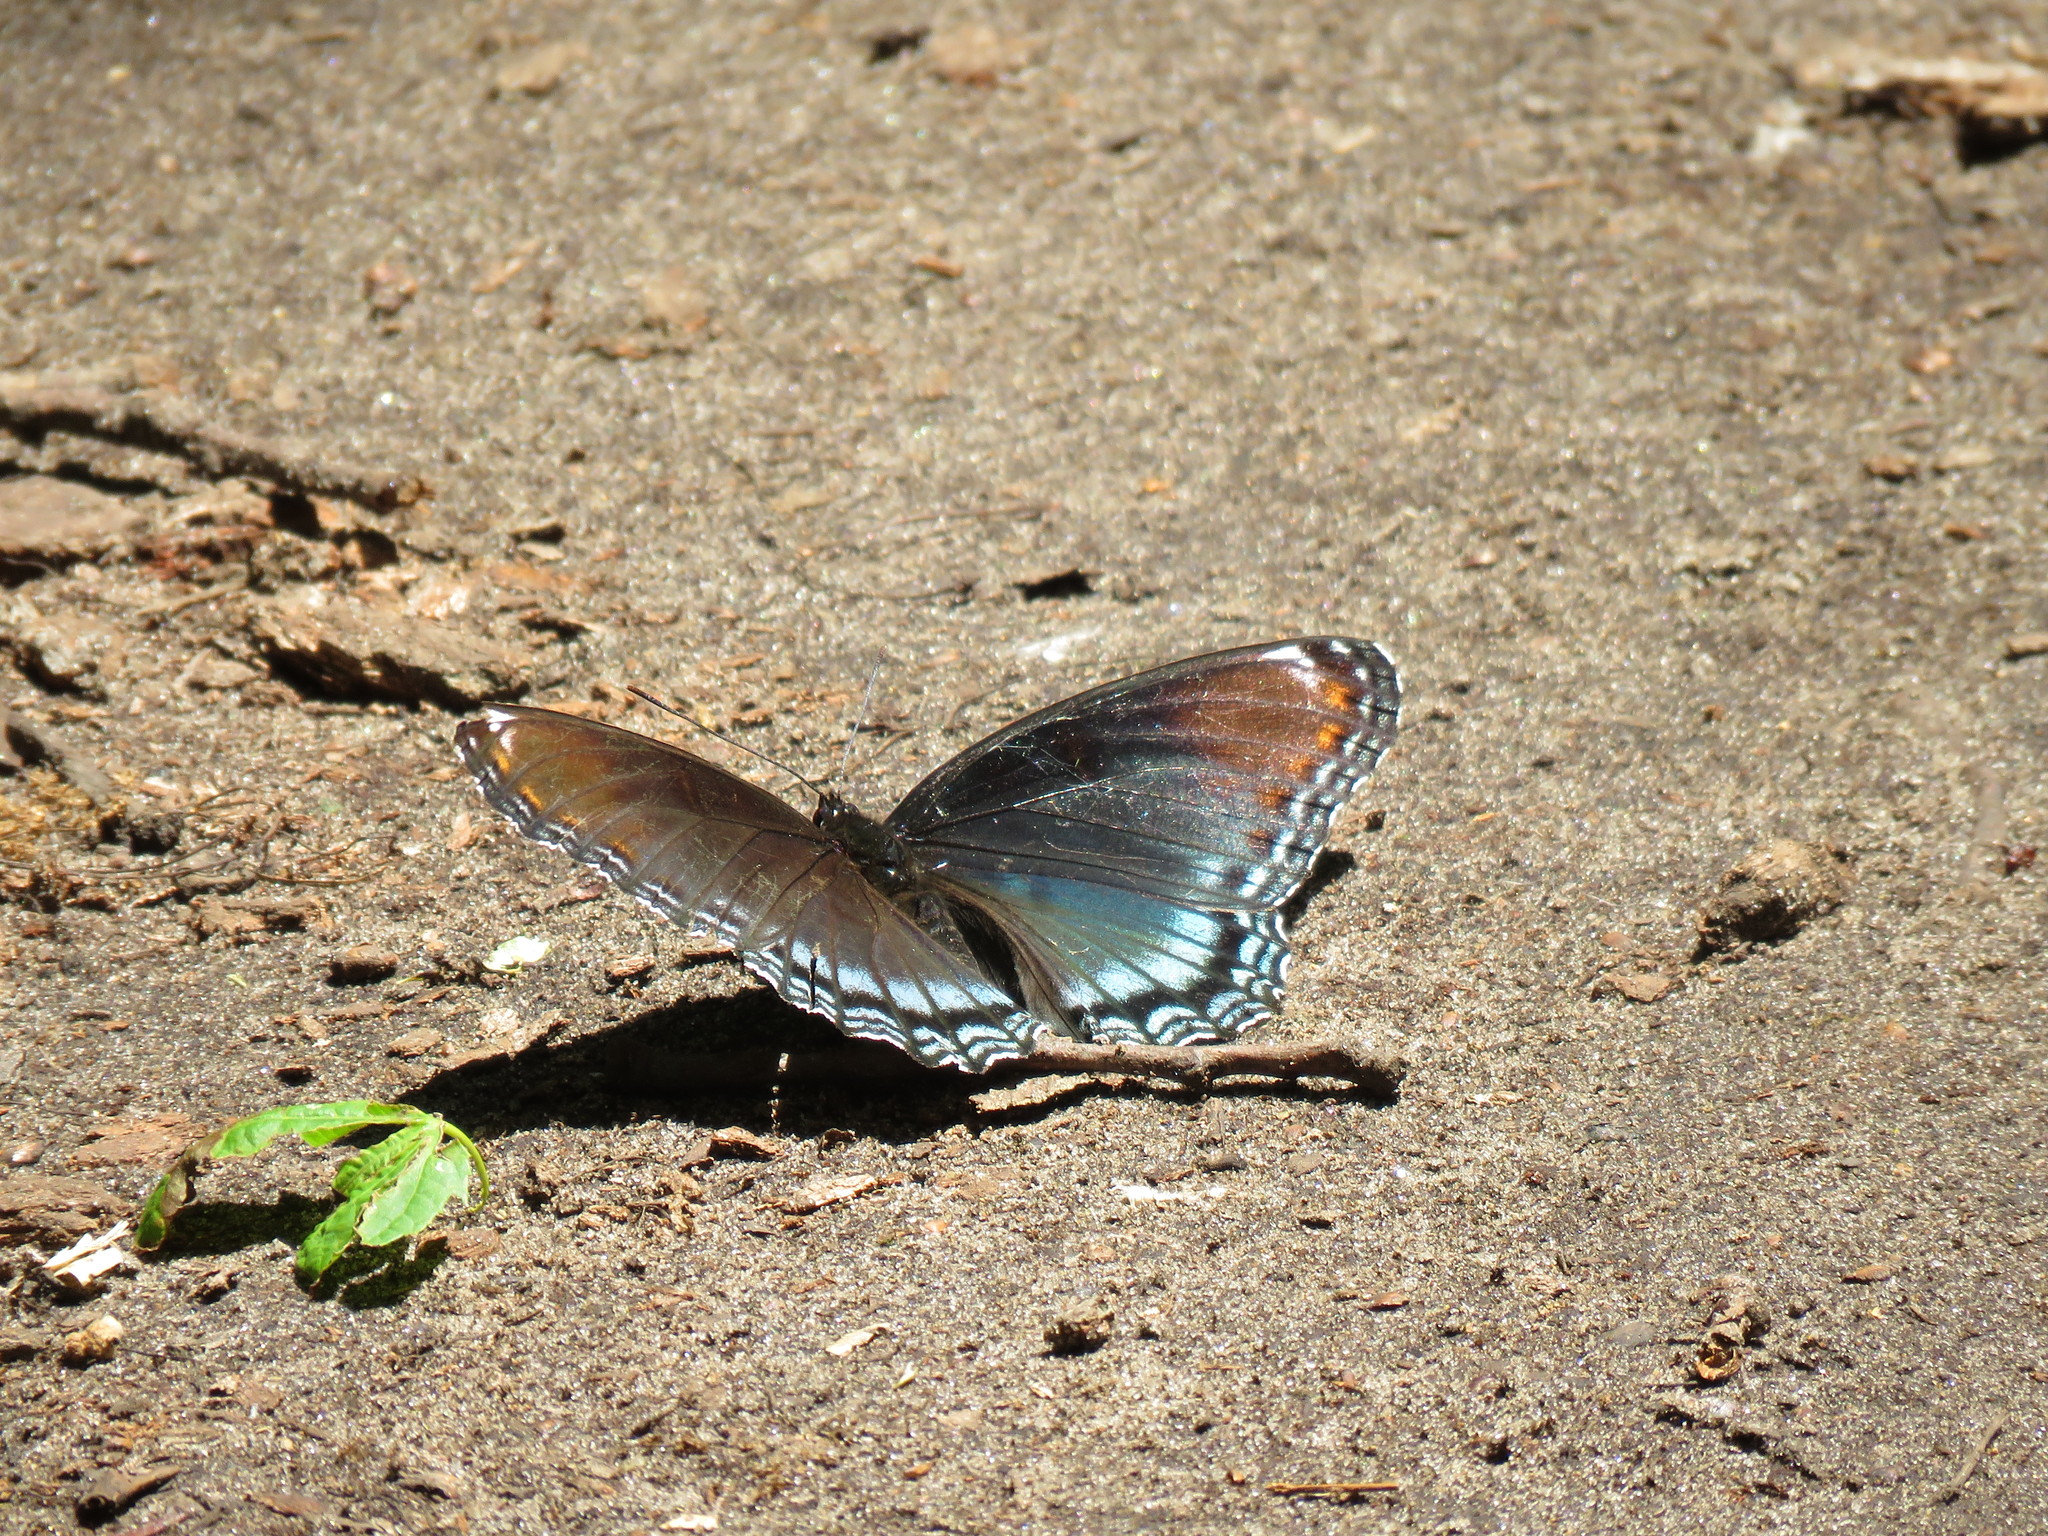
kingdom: Animalia
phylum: Arthropoda
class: Insecta
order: Lepidoptera
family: Nymphalidae
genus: Limenitis
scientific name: Limenitis astyanax
